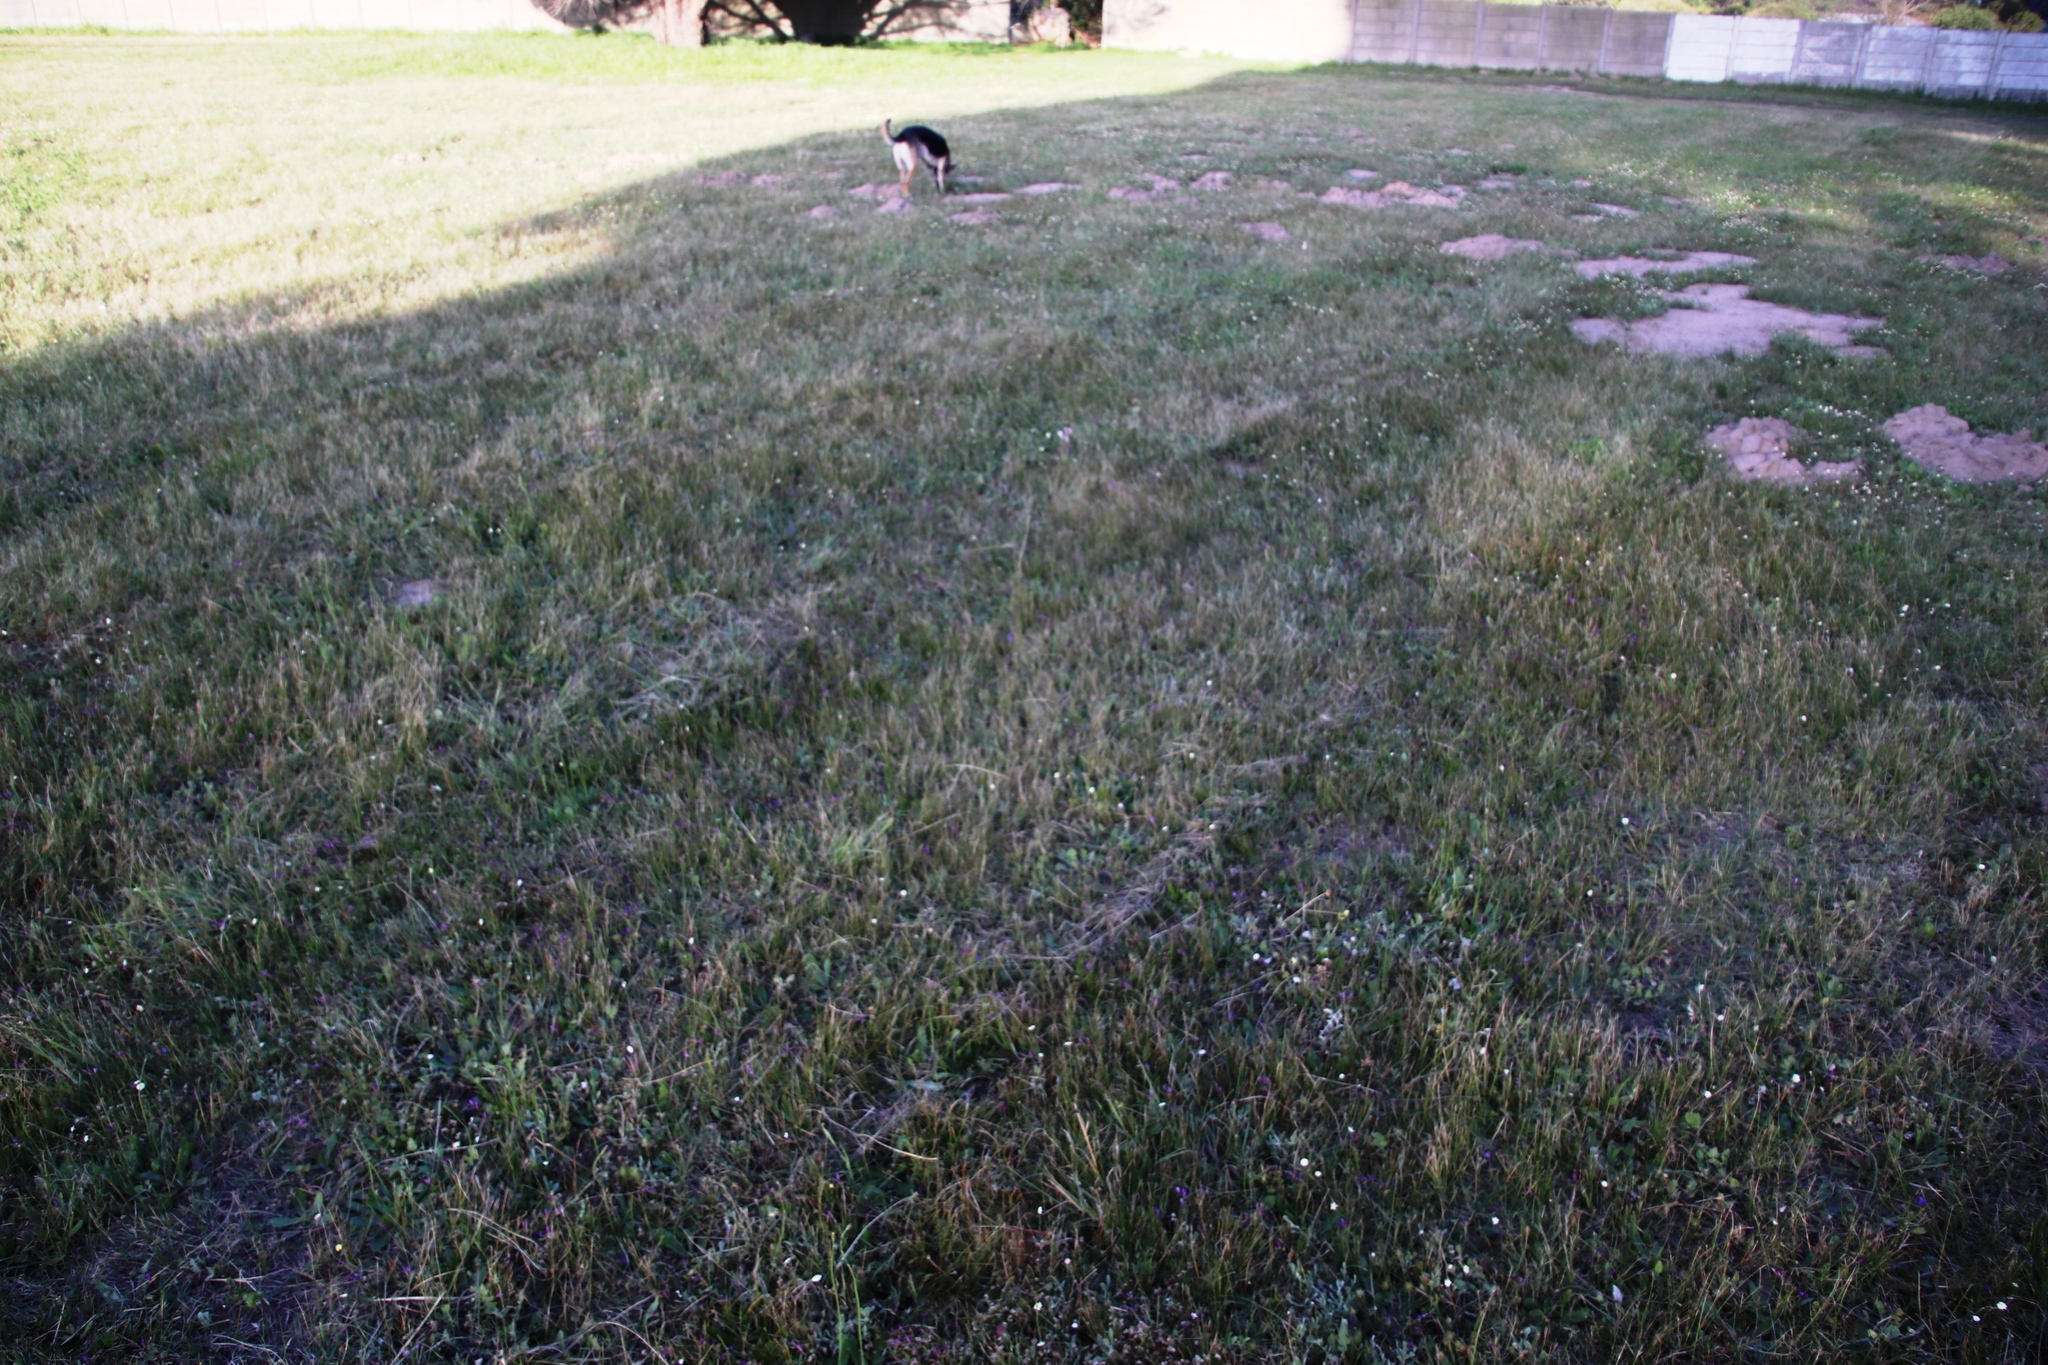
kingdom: Plantae
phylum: Tracheophyta
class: Liliopsida
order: Asparagales
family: Iridaceae
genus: Geissorhiza
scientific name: Geissorhiza aspera
